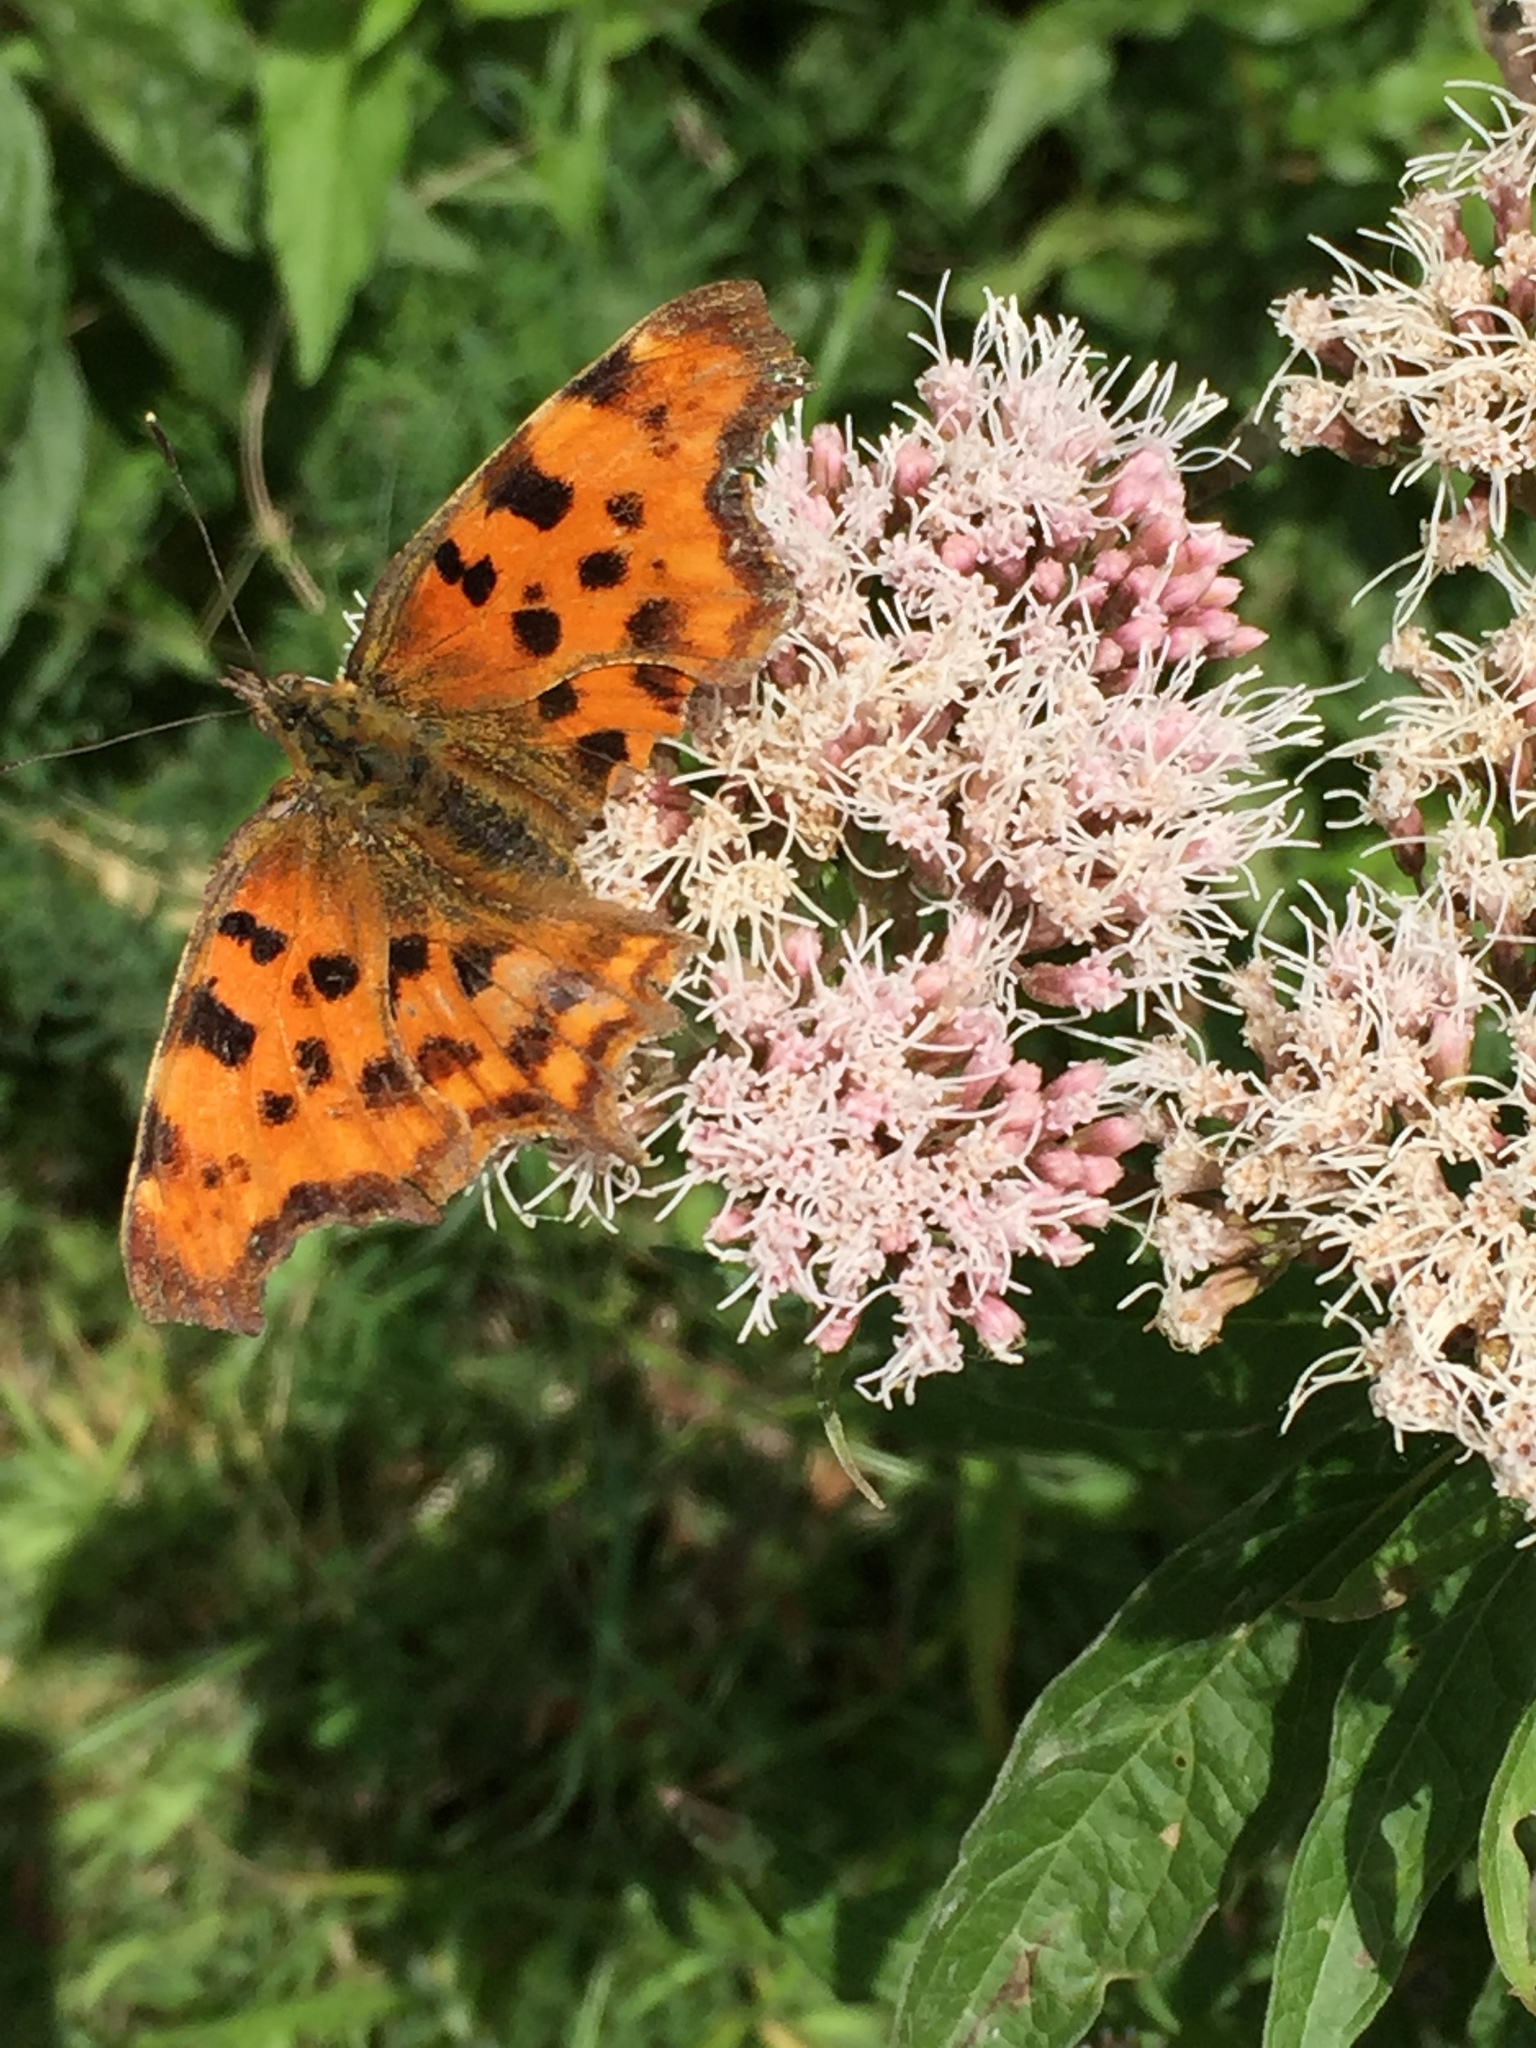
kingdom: Animalia
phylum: Arthropoda
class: Insecta
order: Lepidoptera
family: Nymphalidae
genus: Polygonia
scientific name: Polygonia c-album
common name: Comma
